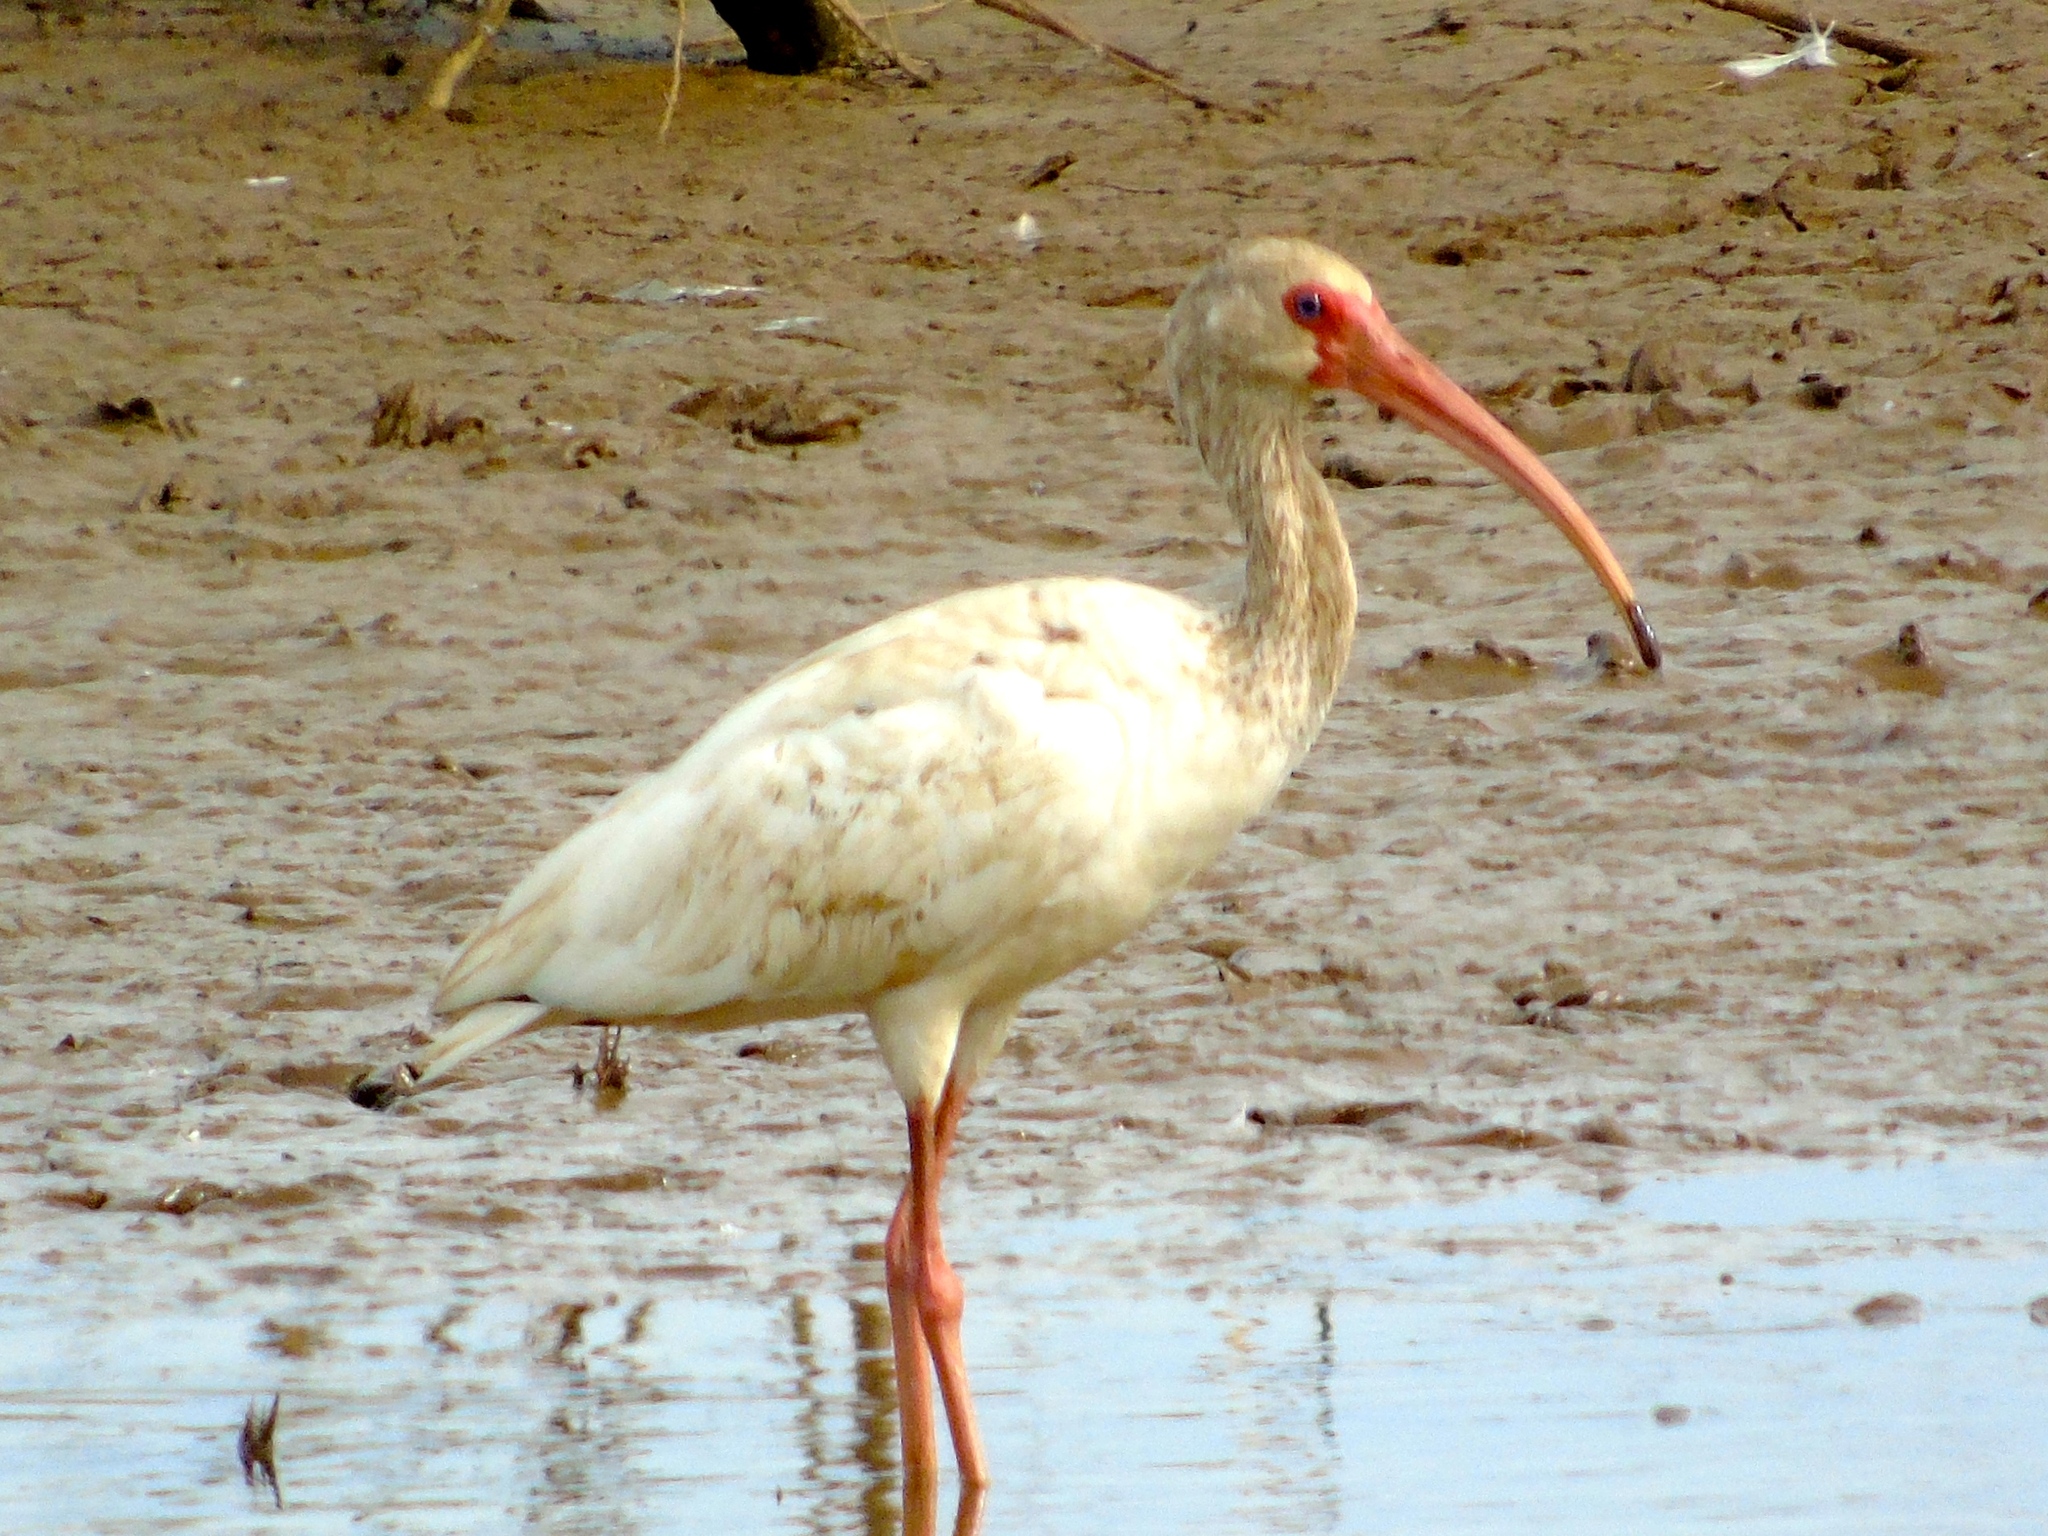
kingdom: Animalia
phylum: Chordata
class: Aves
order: Pelecaniformes
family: Threskiornithidae
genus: Eudocimus
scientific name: Eudocimus albus
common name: White ibis
